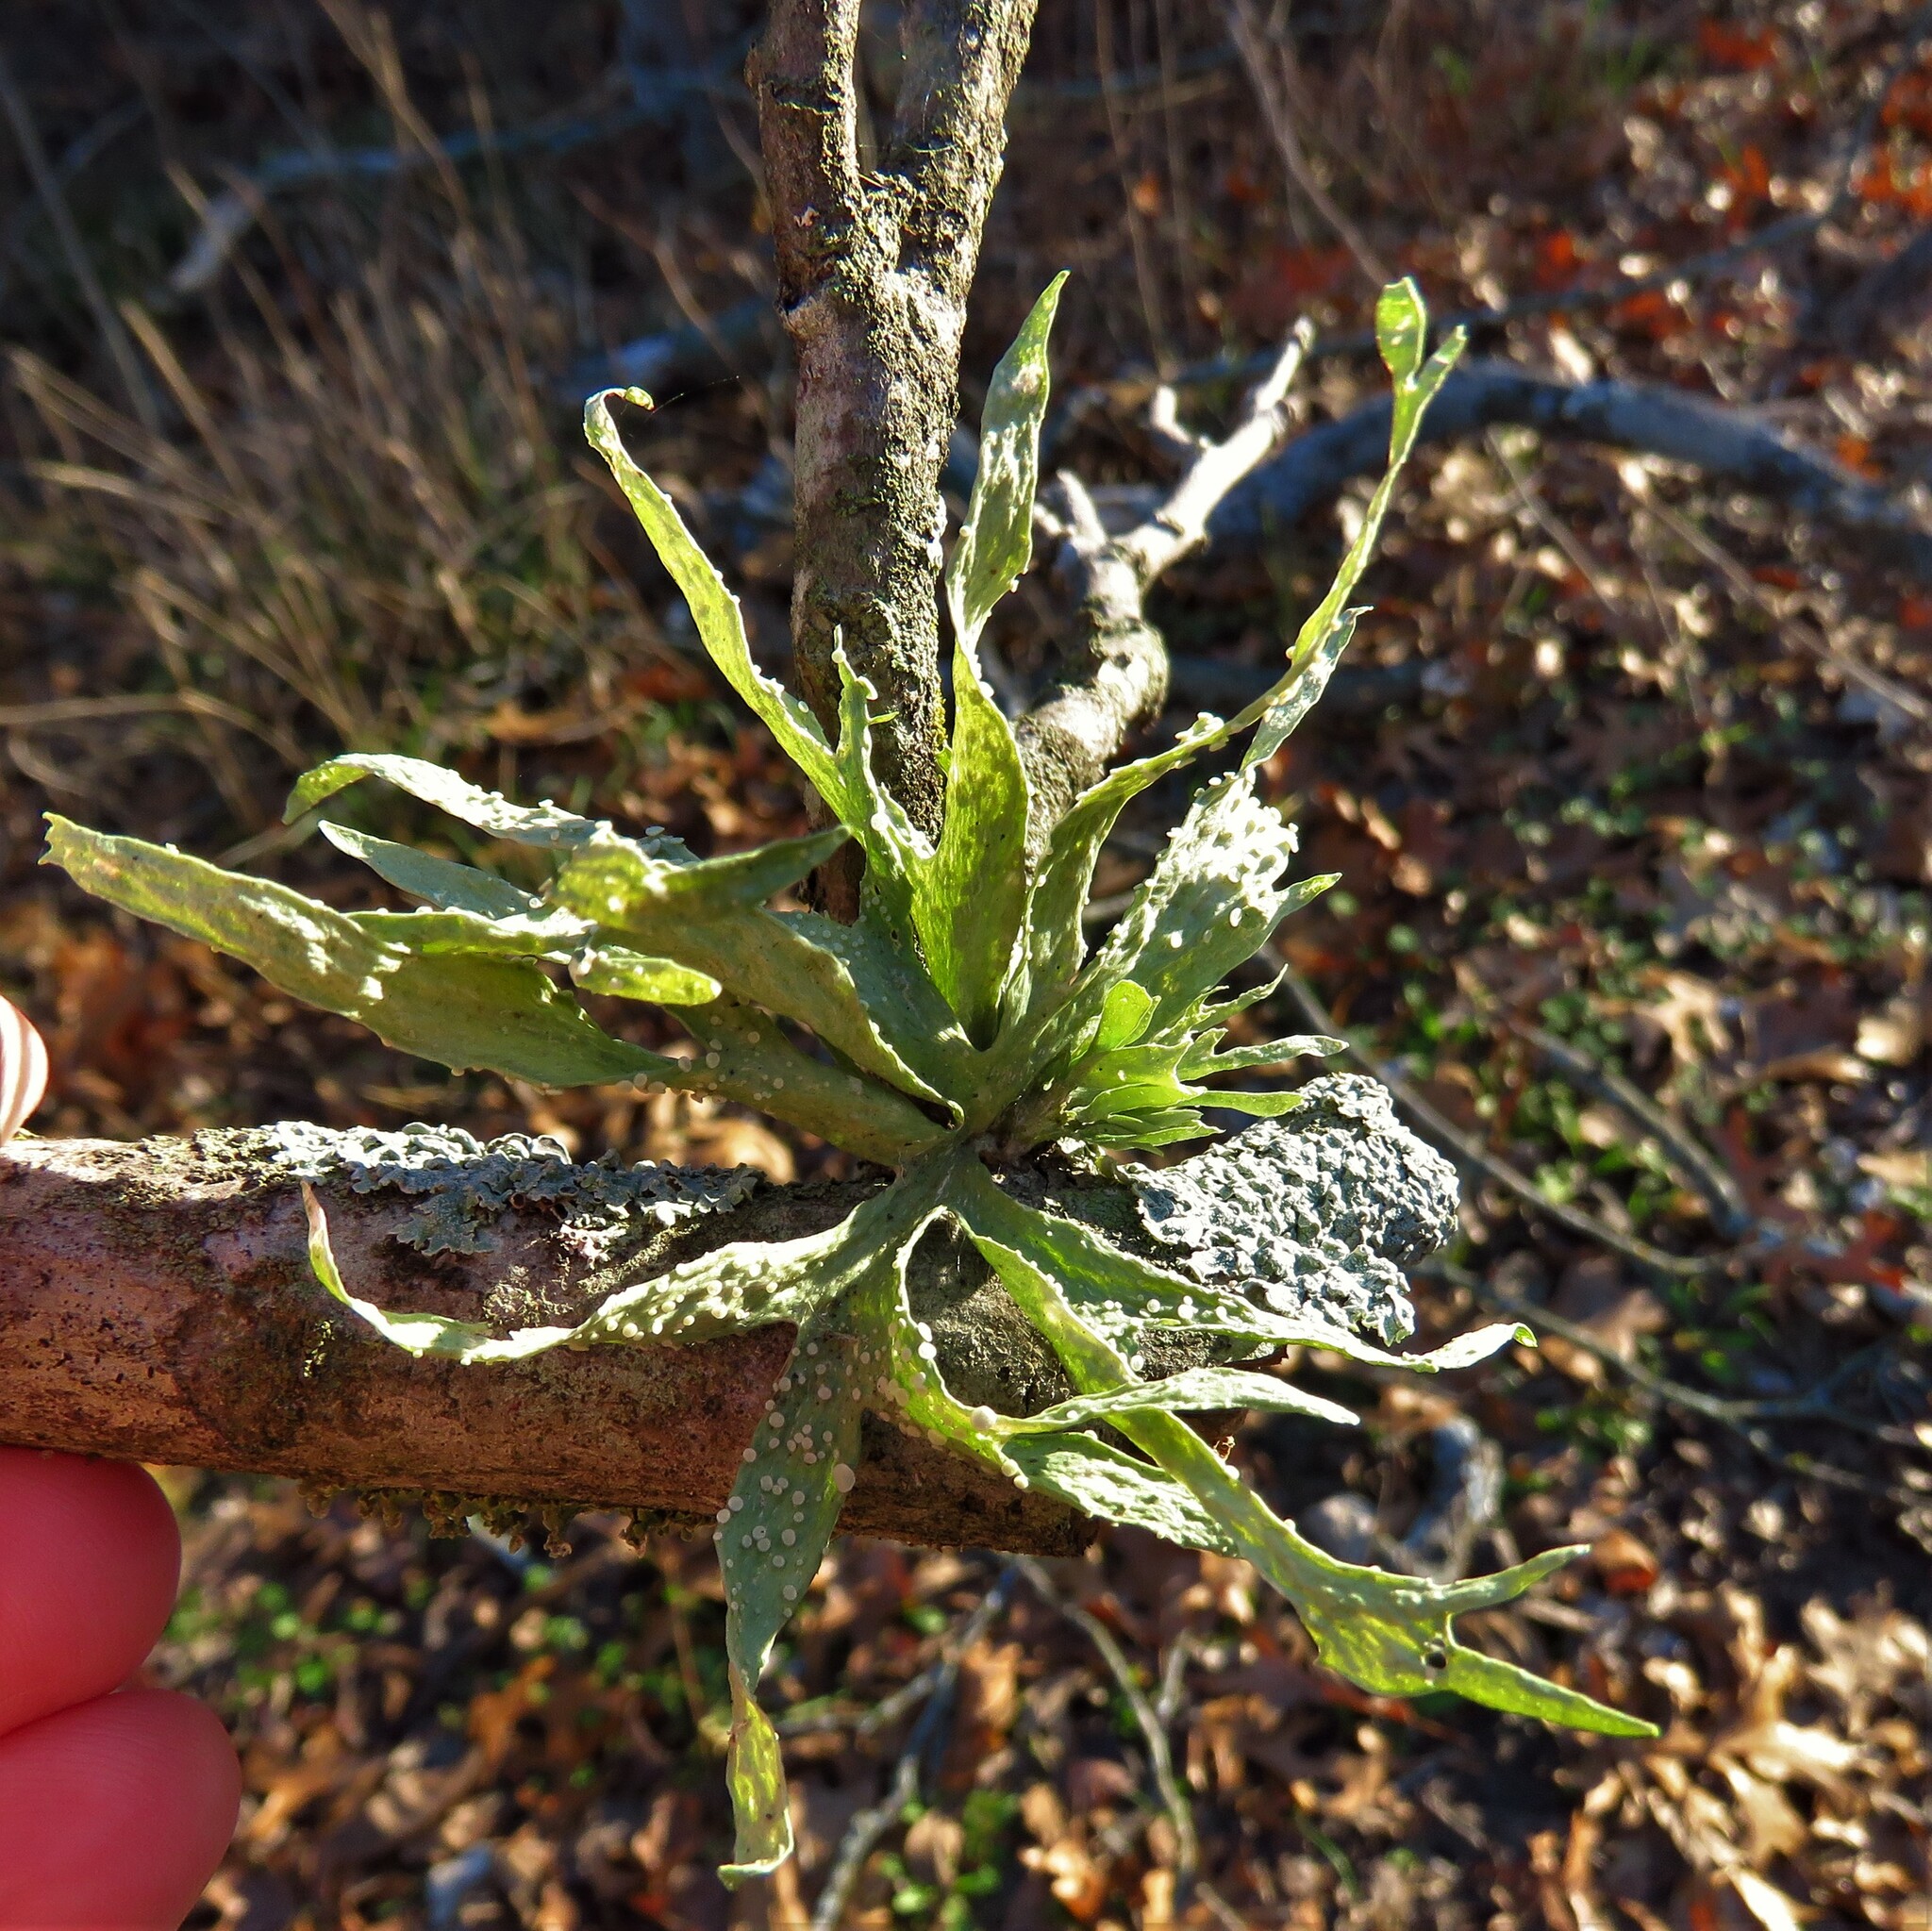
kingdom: Fungi
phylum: Ascomycota
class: Lecanoromycetes
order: Lecanorales
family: Ramalinaceae
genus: Ramalina
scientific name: Ramalina celastri
